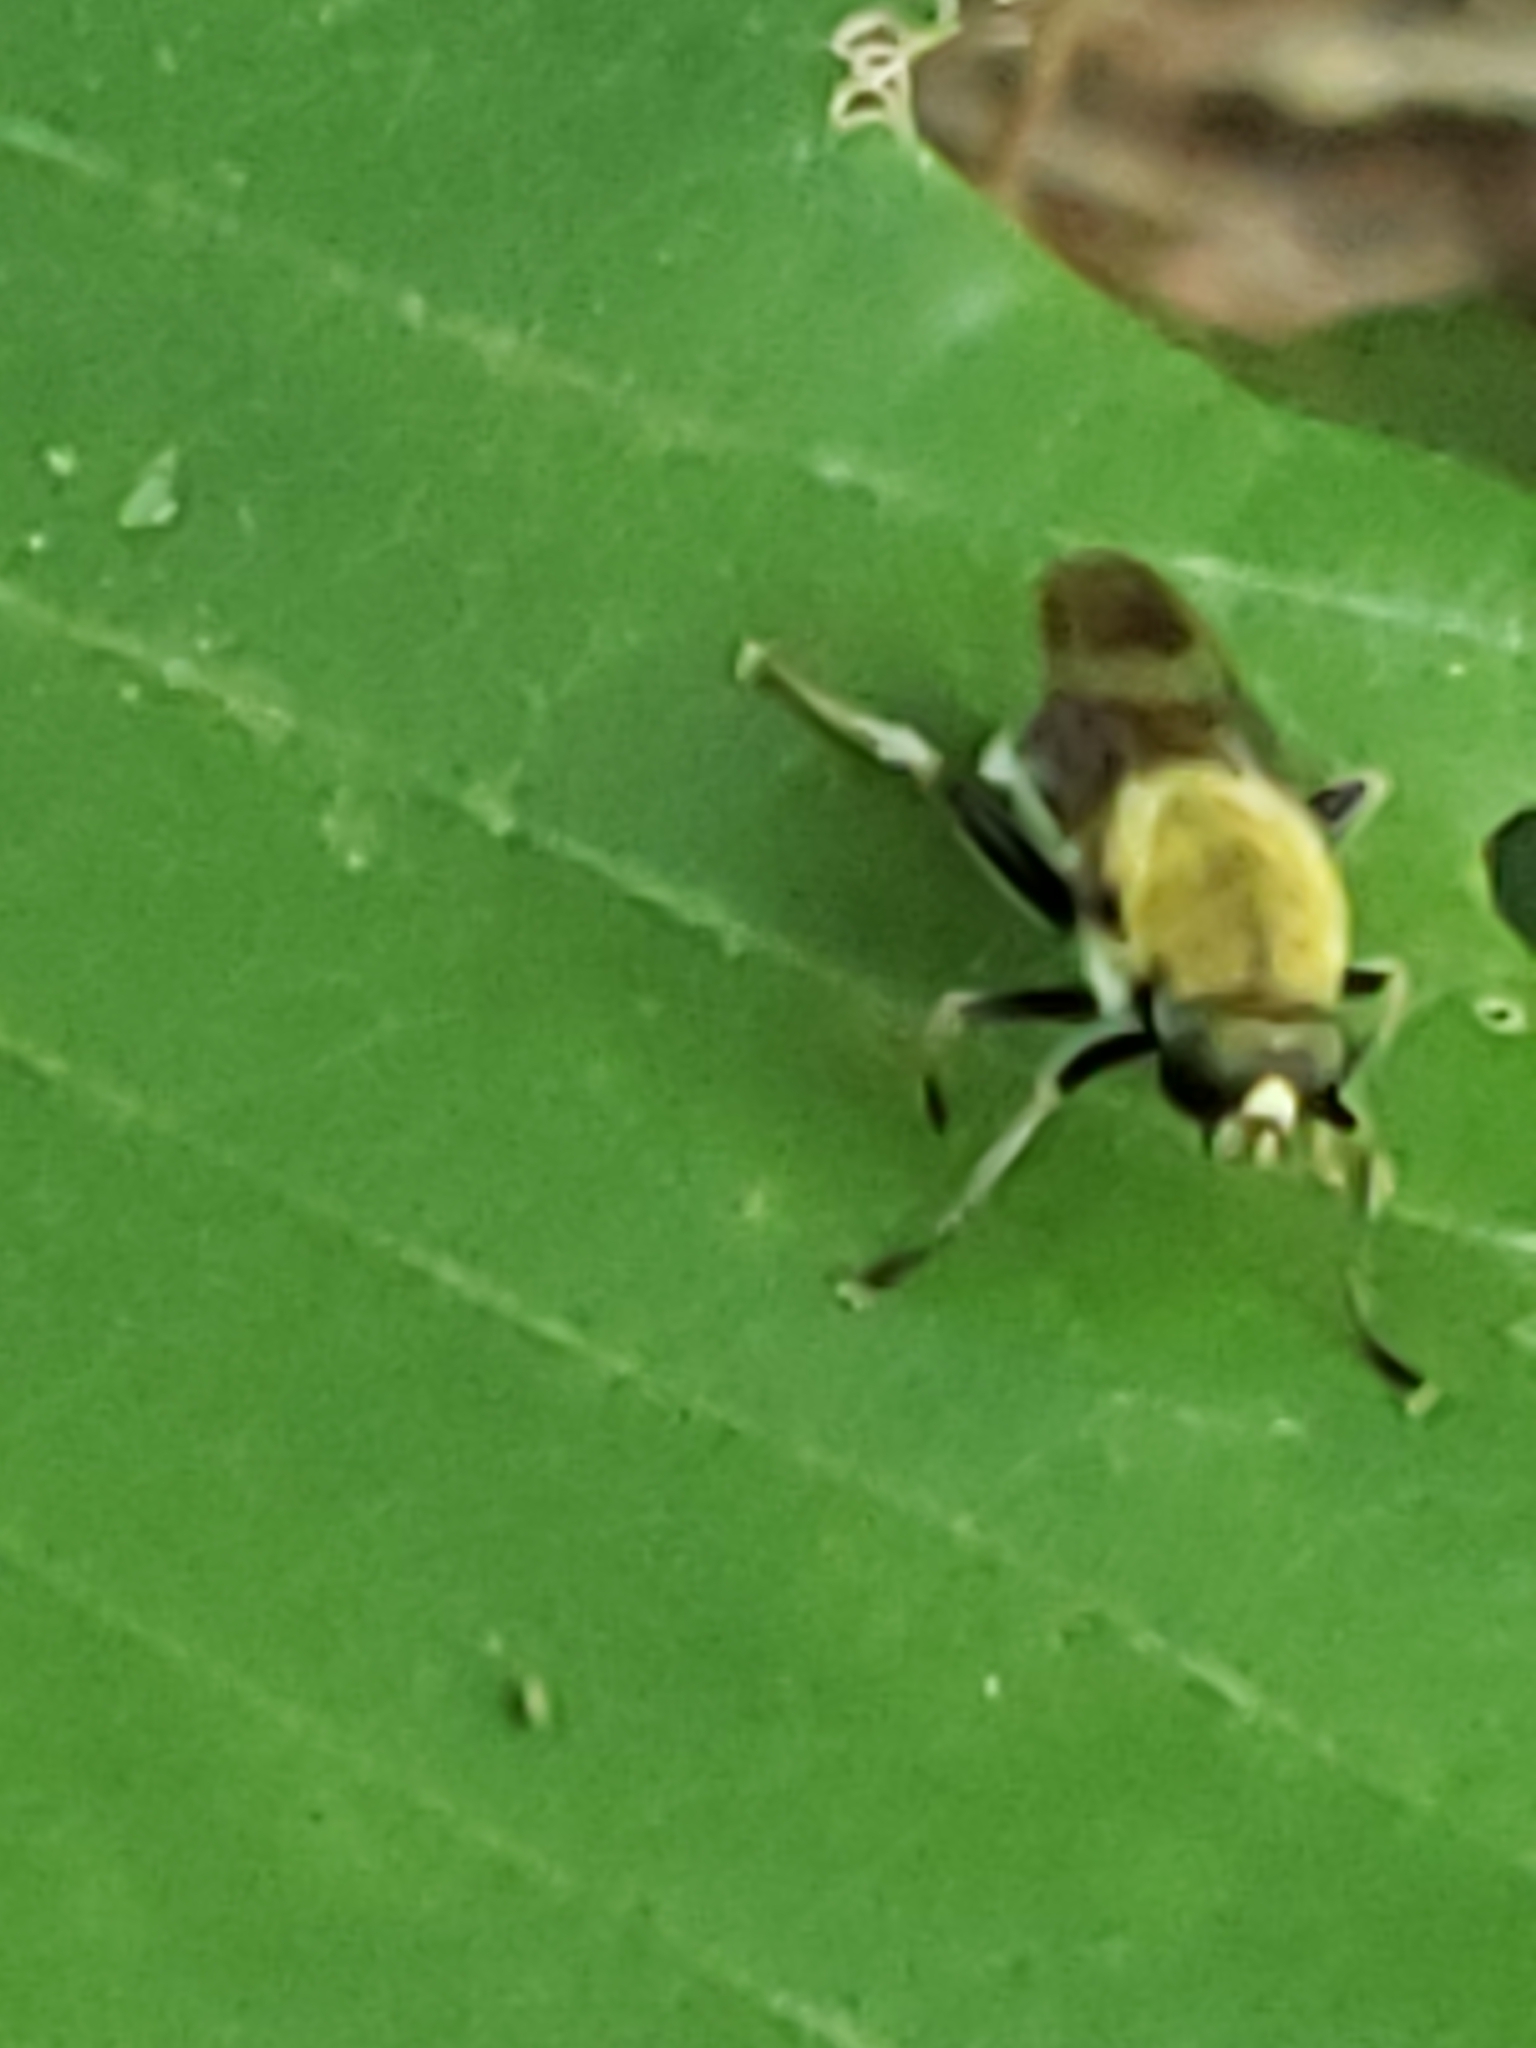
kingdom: Animalia
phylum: Arthropoda
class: Insecta
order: Diptera
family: Syrphidae
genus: Pterallastes
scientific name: Pterallastes thoracicus
